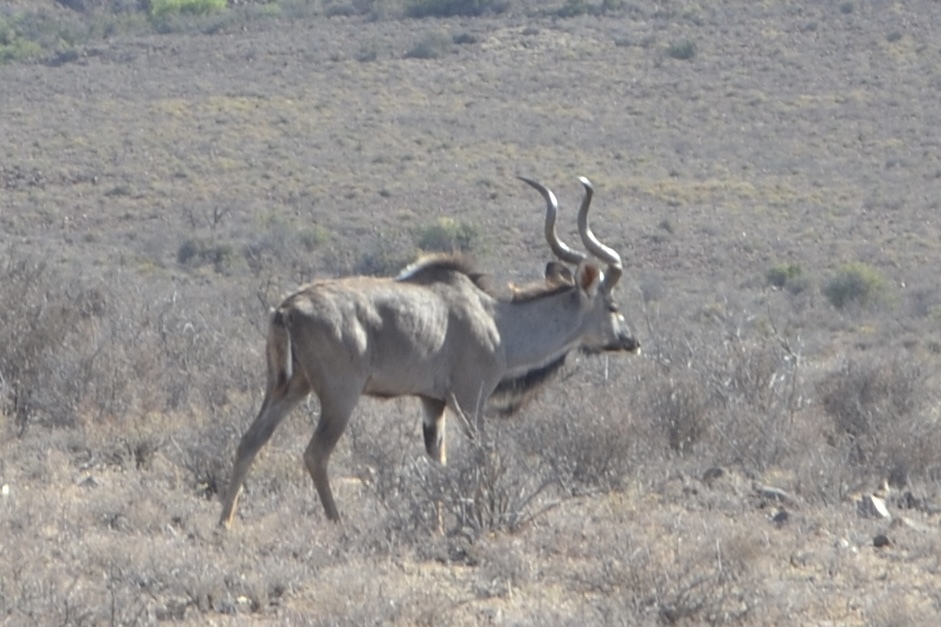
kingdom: Animalia
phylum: Chordata
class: Mammalia
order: Artiodactyla
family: Bovidae
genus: Tragelaphus
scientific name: Tragelaphus strepsiceros
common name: Greater kudu
